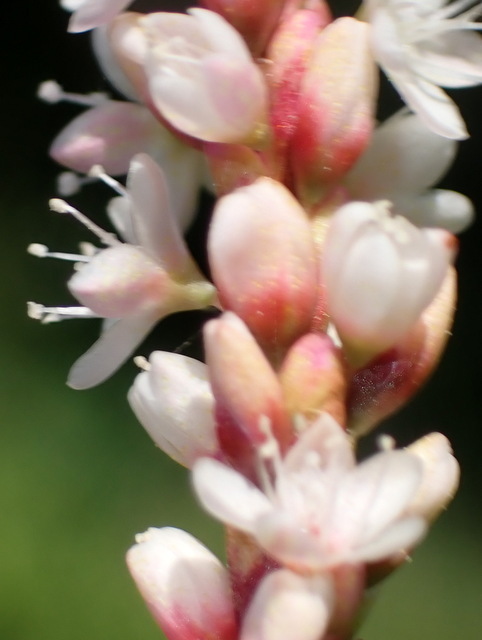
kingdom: Plantae
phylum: Tracheophyta
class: Magnoliopsida
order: Caryophyllales
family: Polygonaceae
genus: Persicaria
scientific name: Persicaria glabra
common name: Denseflower knotweed
